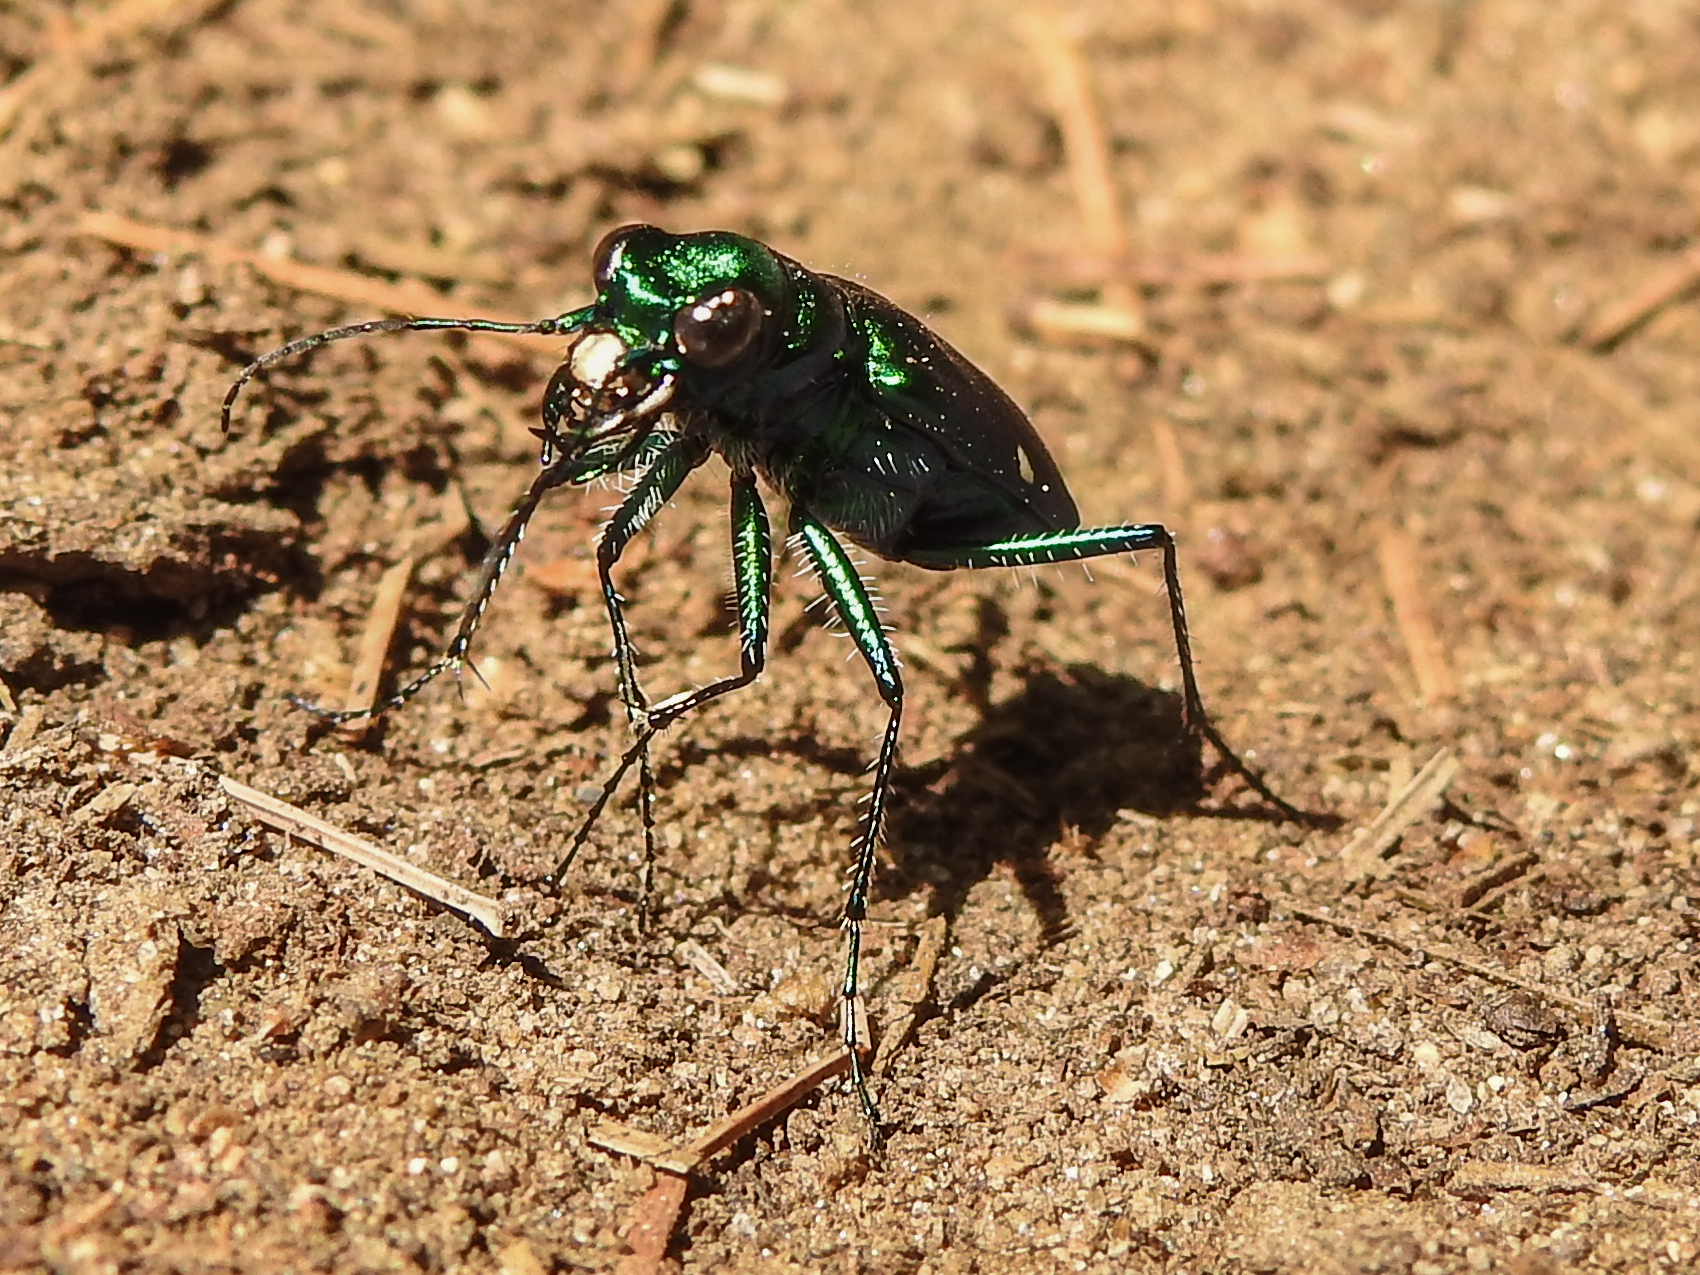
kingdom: Animalia
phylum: Arthropoda
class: Insecta
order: Coleoptera
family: Carabidae
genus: Cicindela
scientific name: Cicindela sexguttata
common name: Six-spotted tiger beetle
